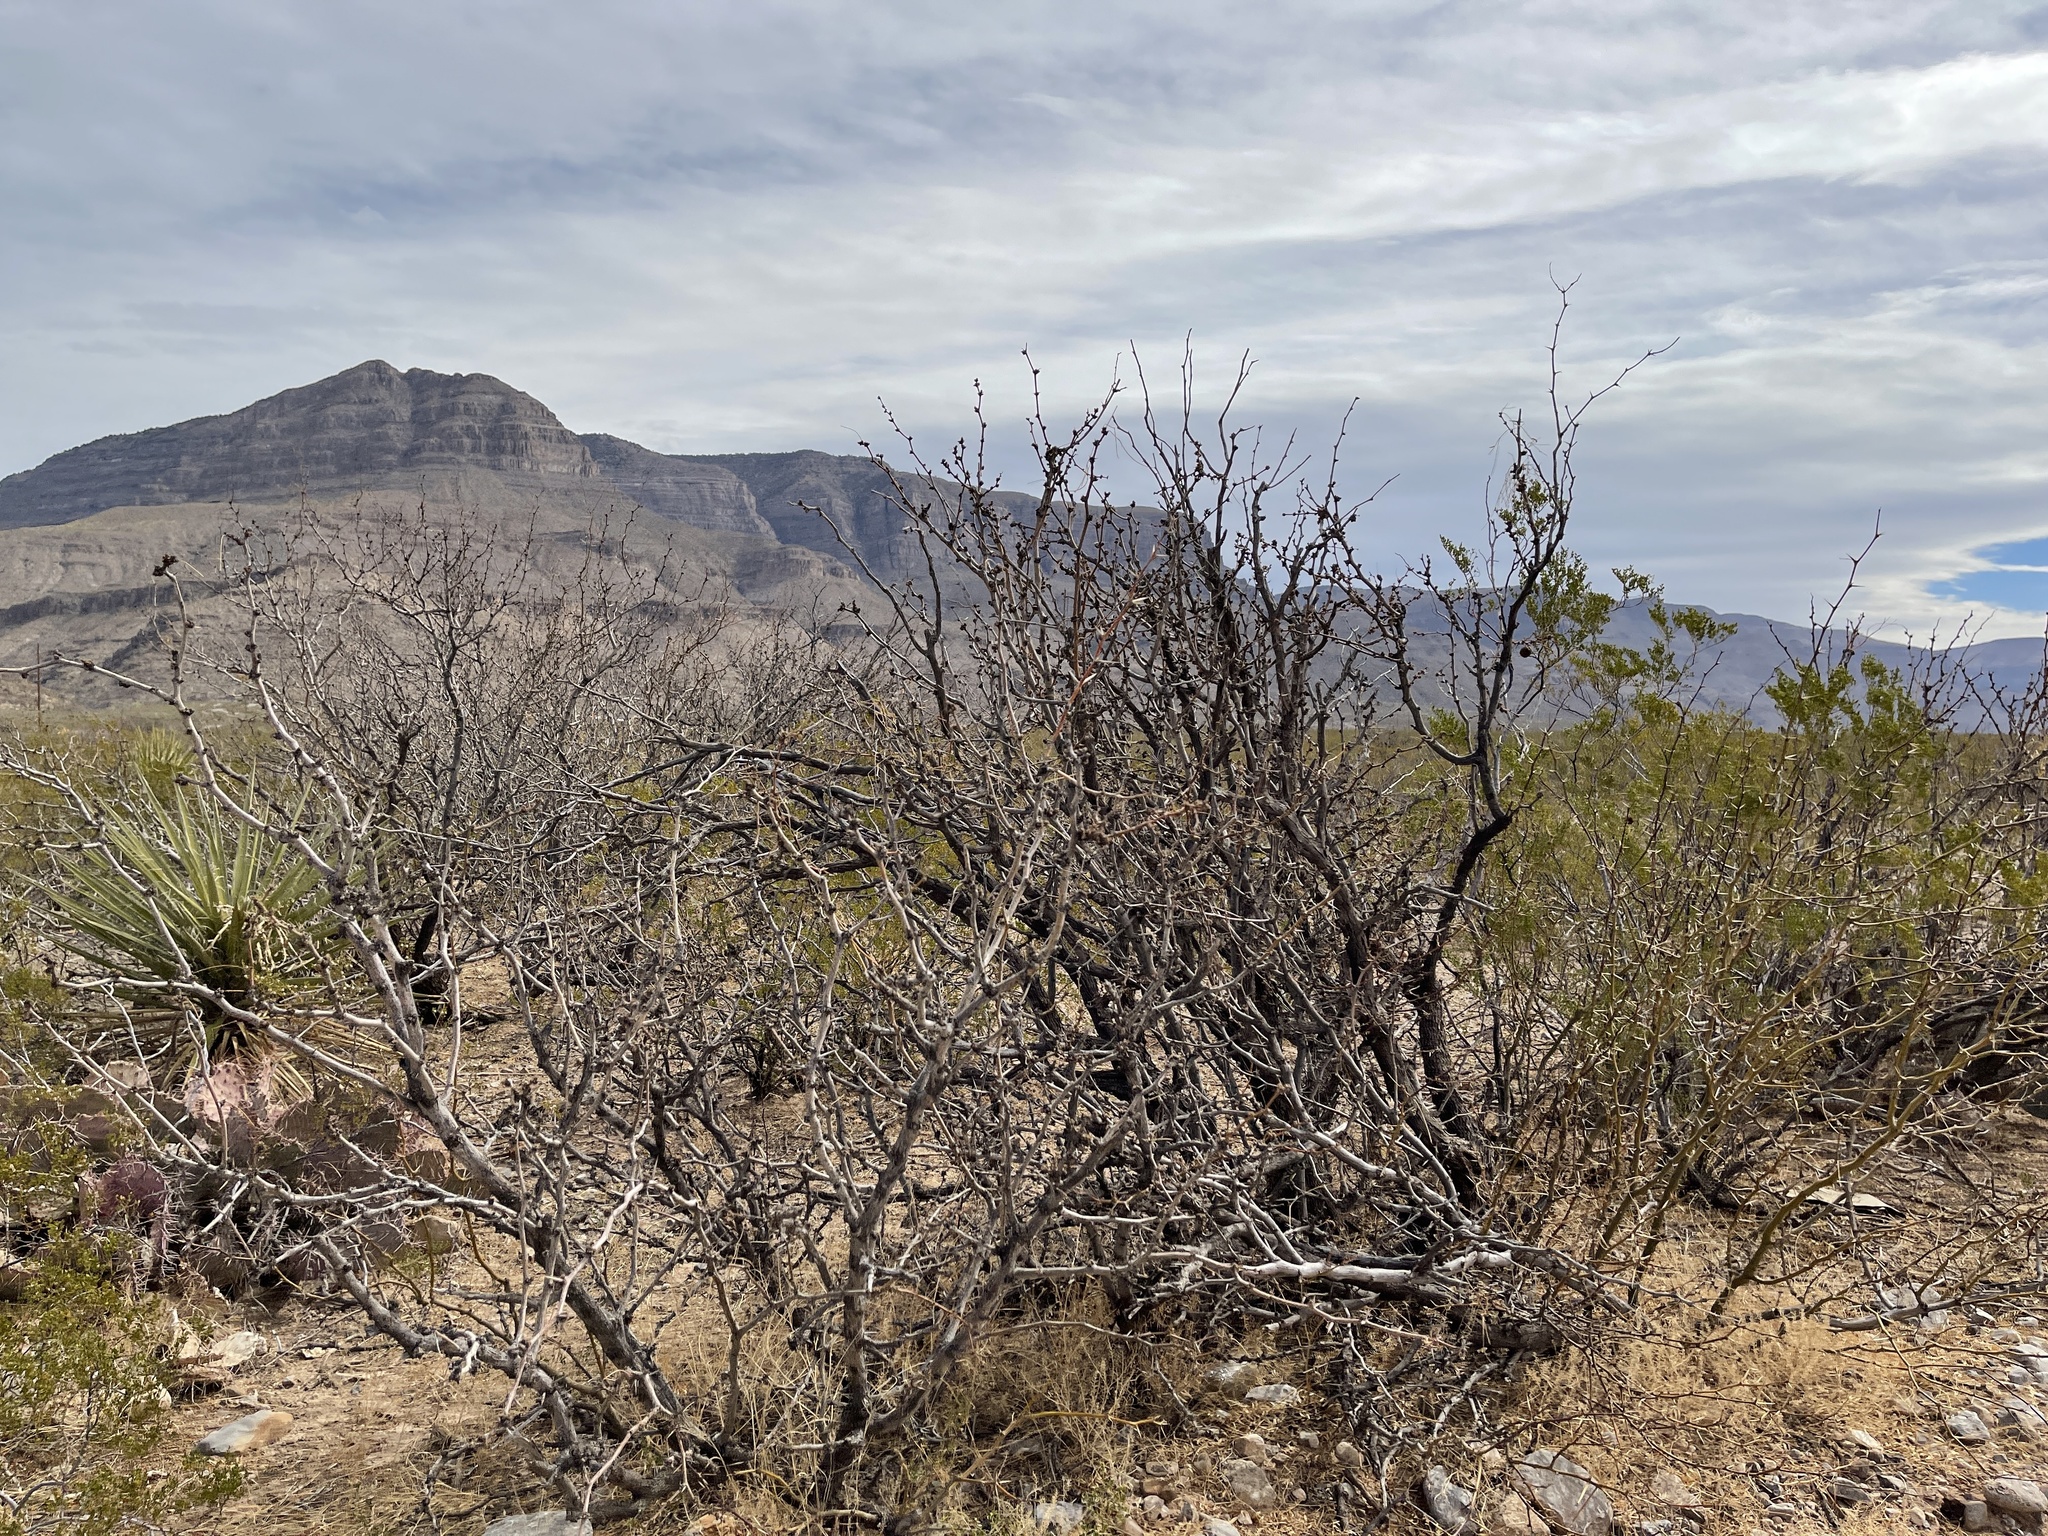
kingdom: Plantae
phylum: Tracheophyta
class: Magnoliopsida
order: Fabales
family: Fabaceae
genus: Prosopis
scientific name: Prosopis glandulosa
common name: Honey mesquite
